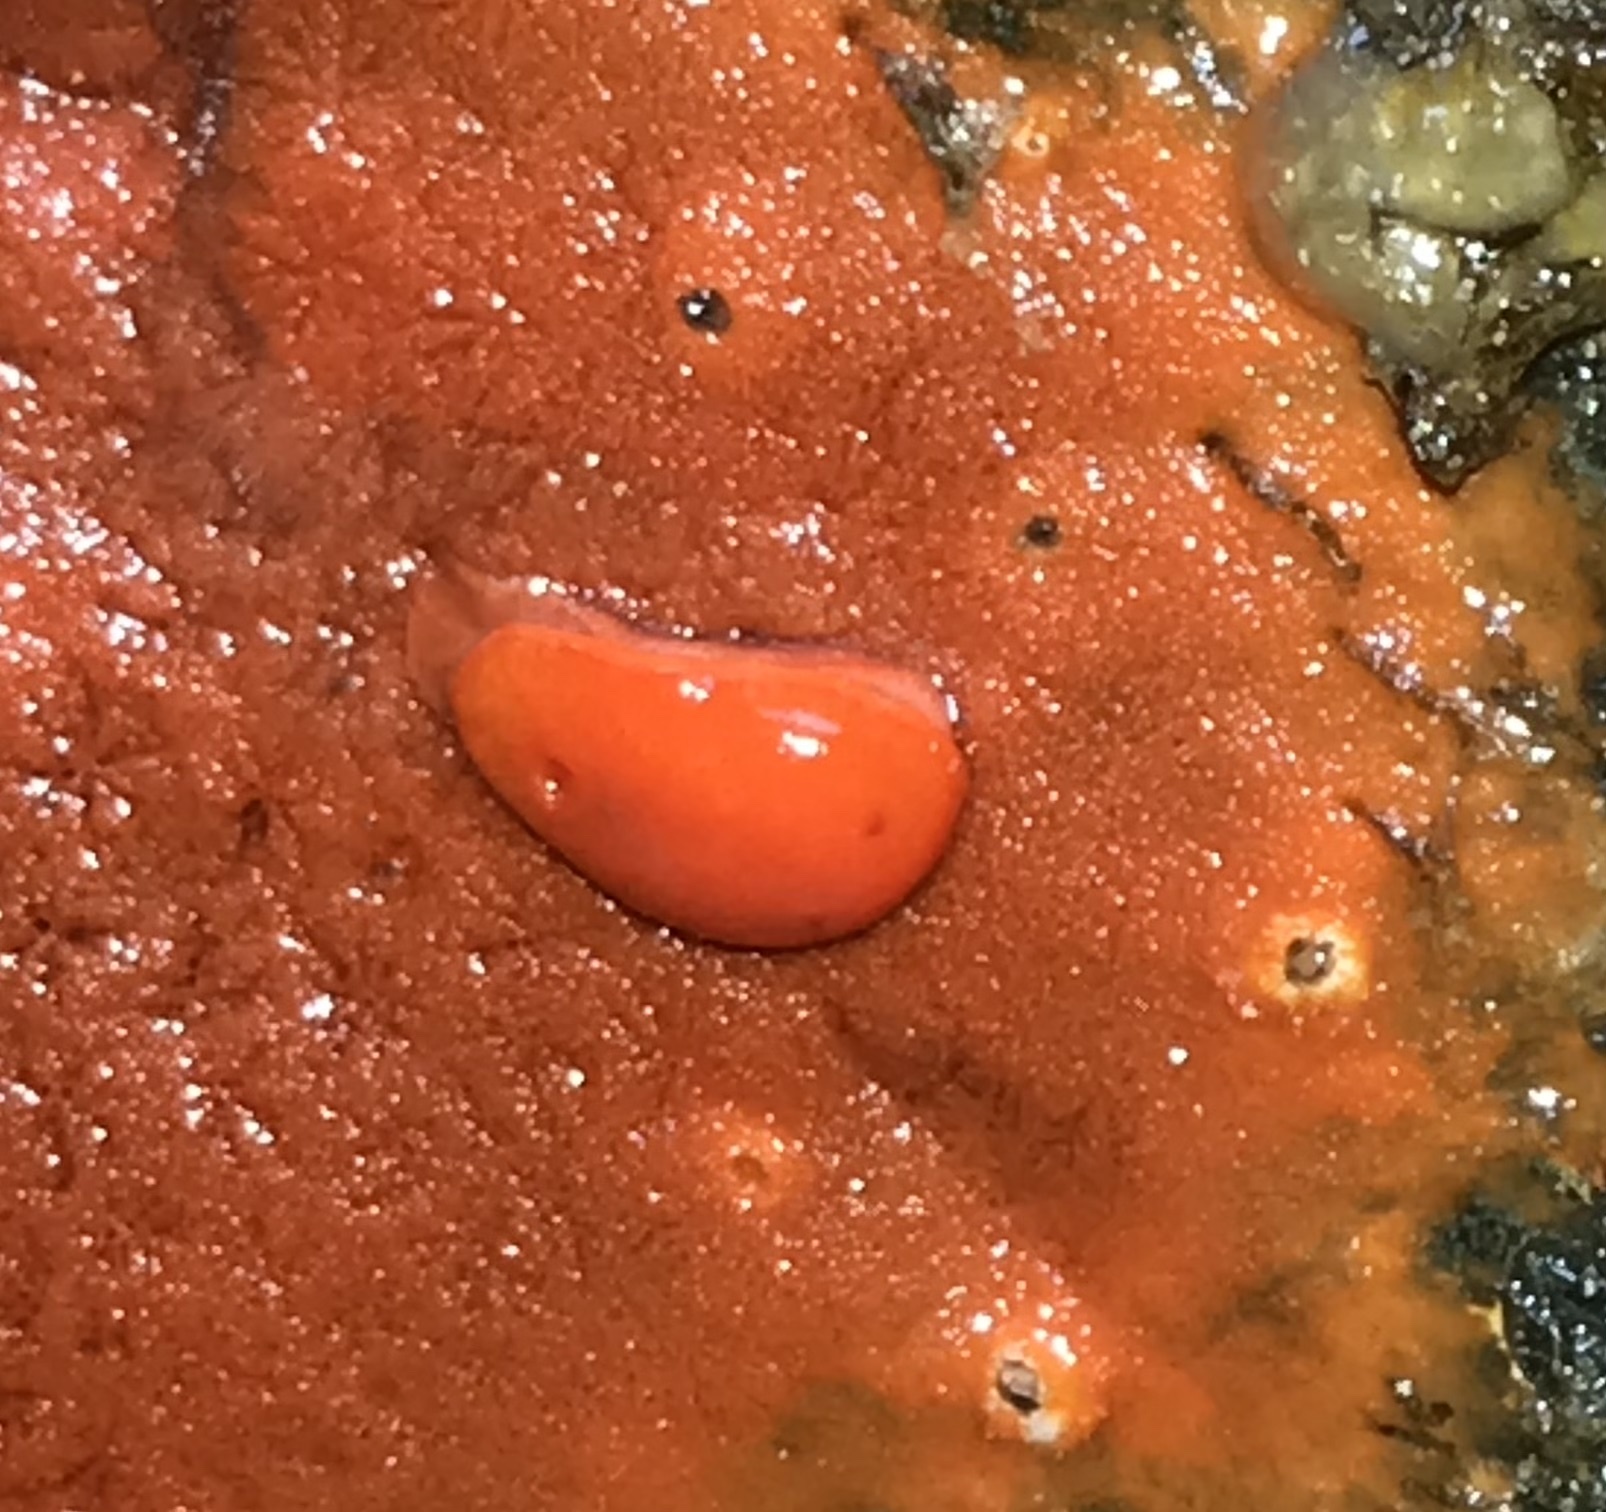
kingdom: Animalia
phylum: Mollusca
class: Gastropoda
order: Nudibranchia
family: Discodorididae
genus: Rostanga
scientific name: Rostanga pulchra
